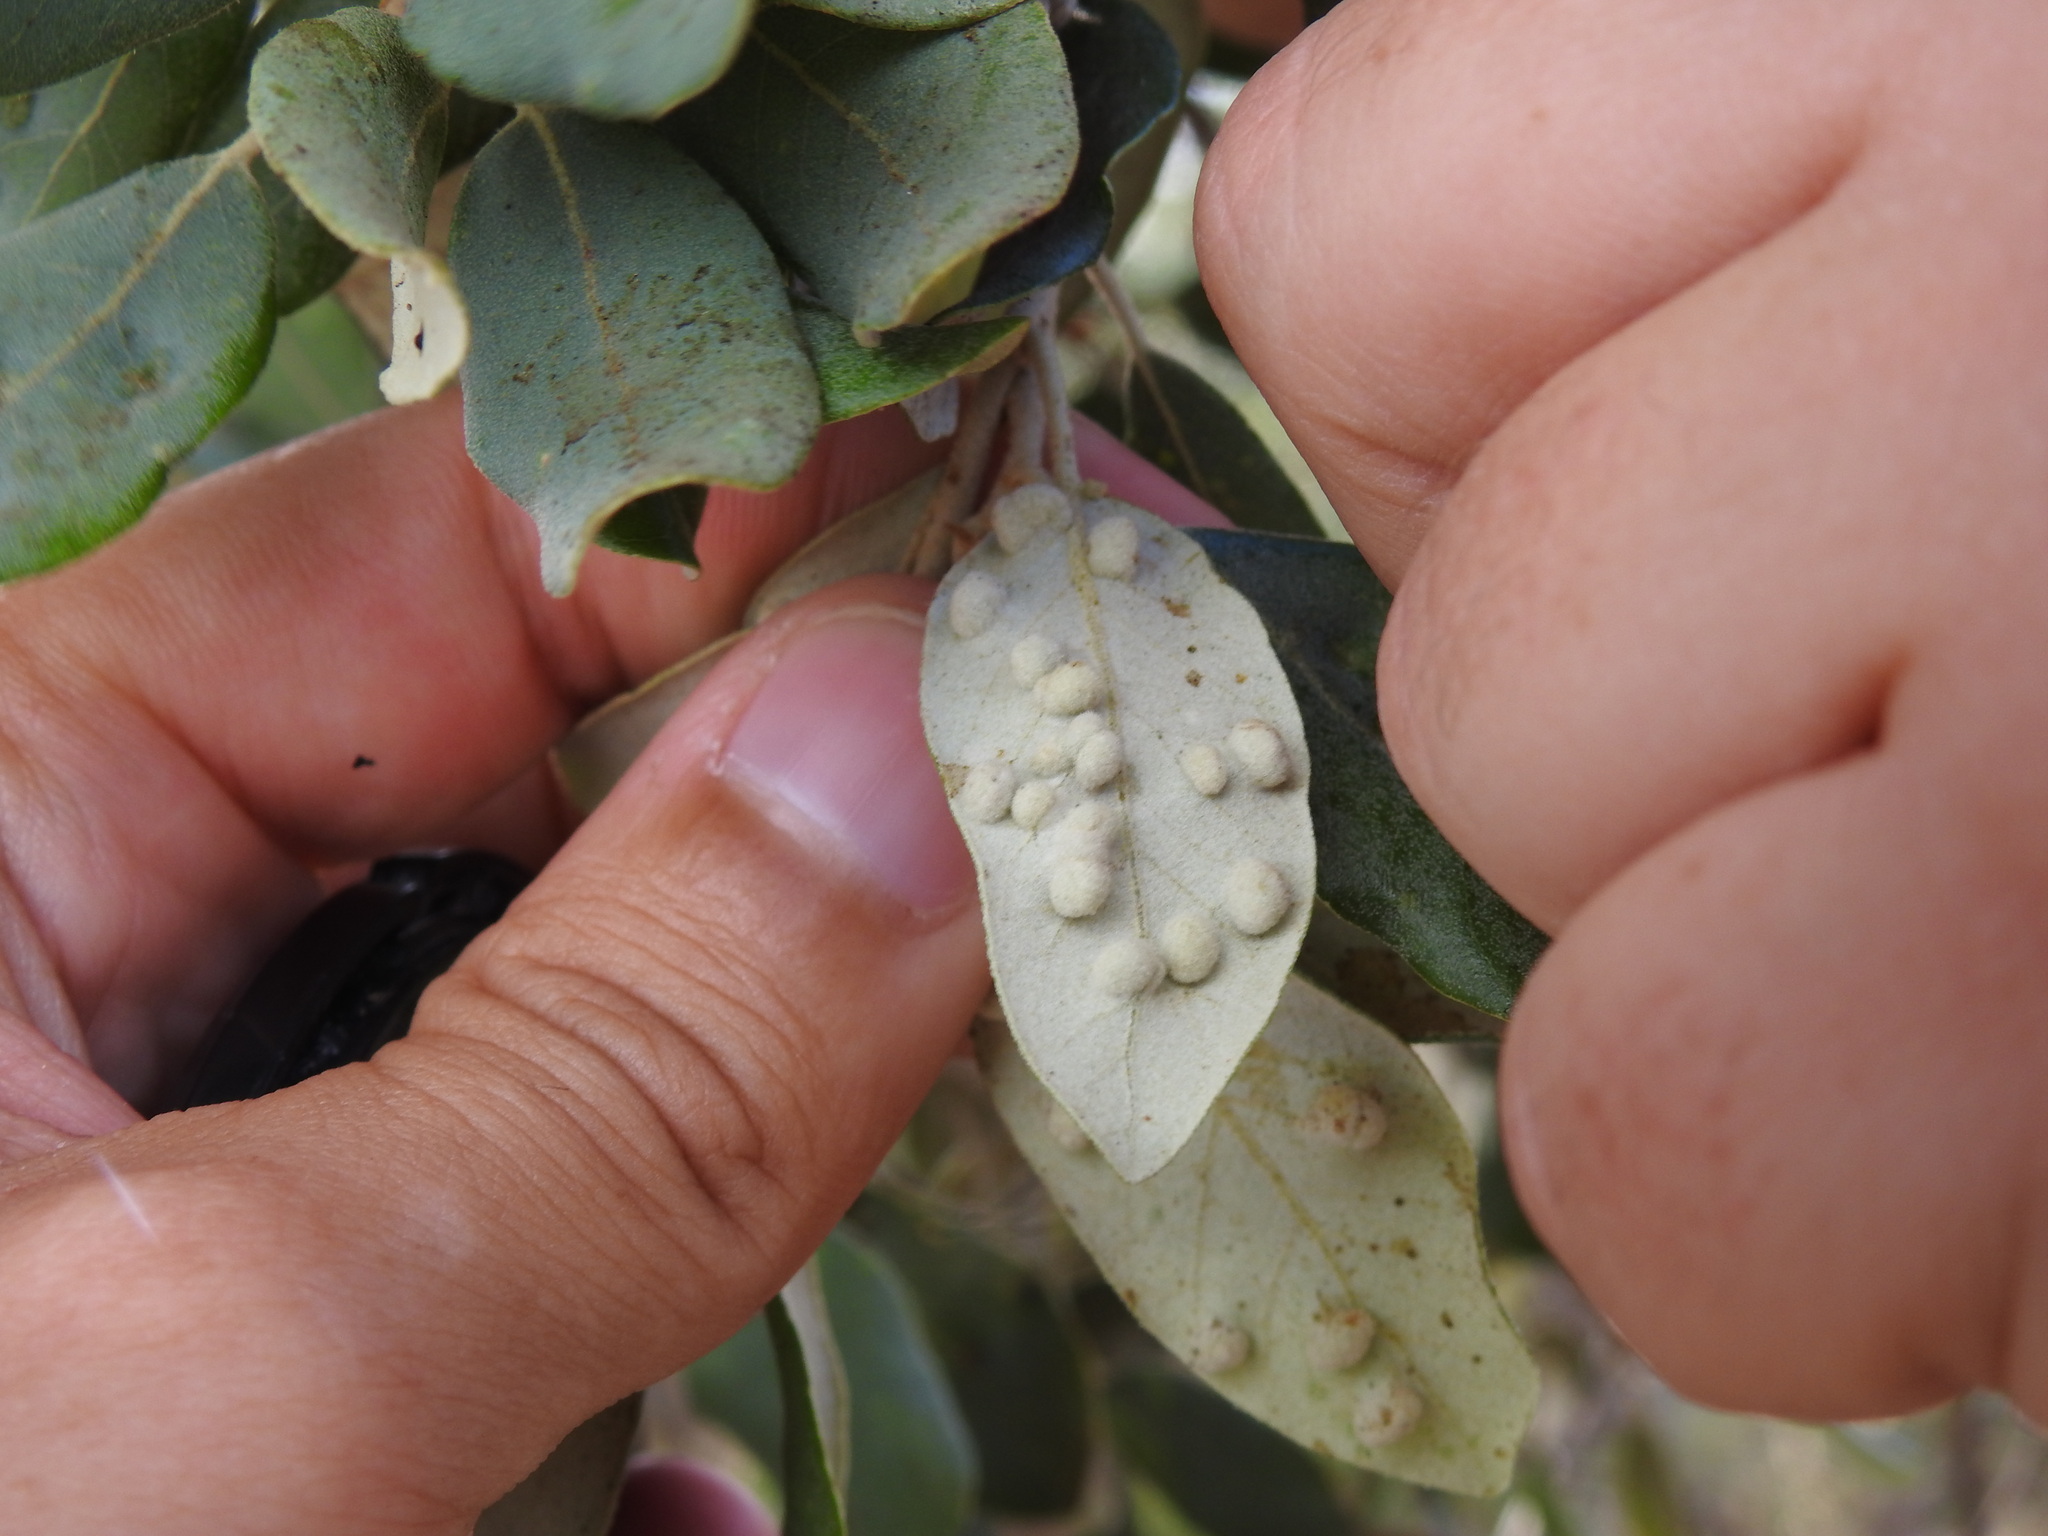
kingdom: Plantae
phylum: Tracheophyta
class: Magnoliopsida
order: Fagales
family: Fagaceae
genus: Quercus
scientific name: Quercus rotundifolia
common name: Holm oak
